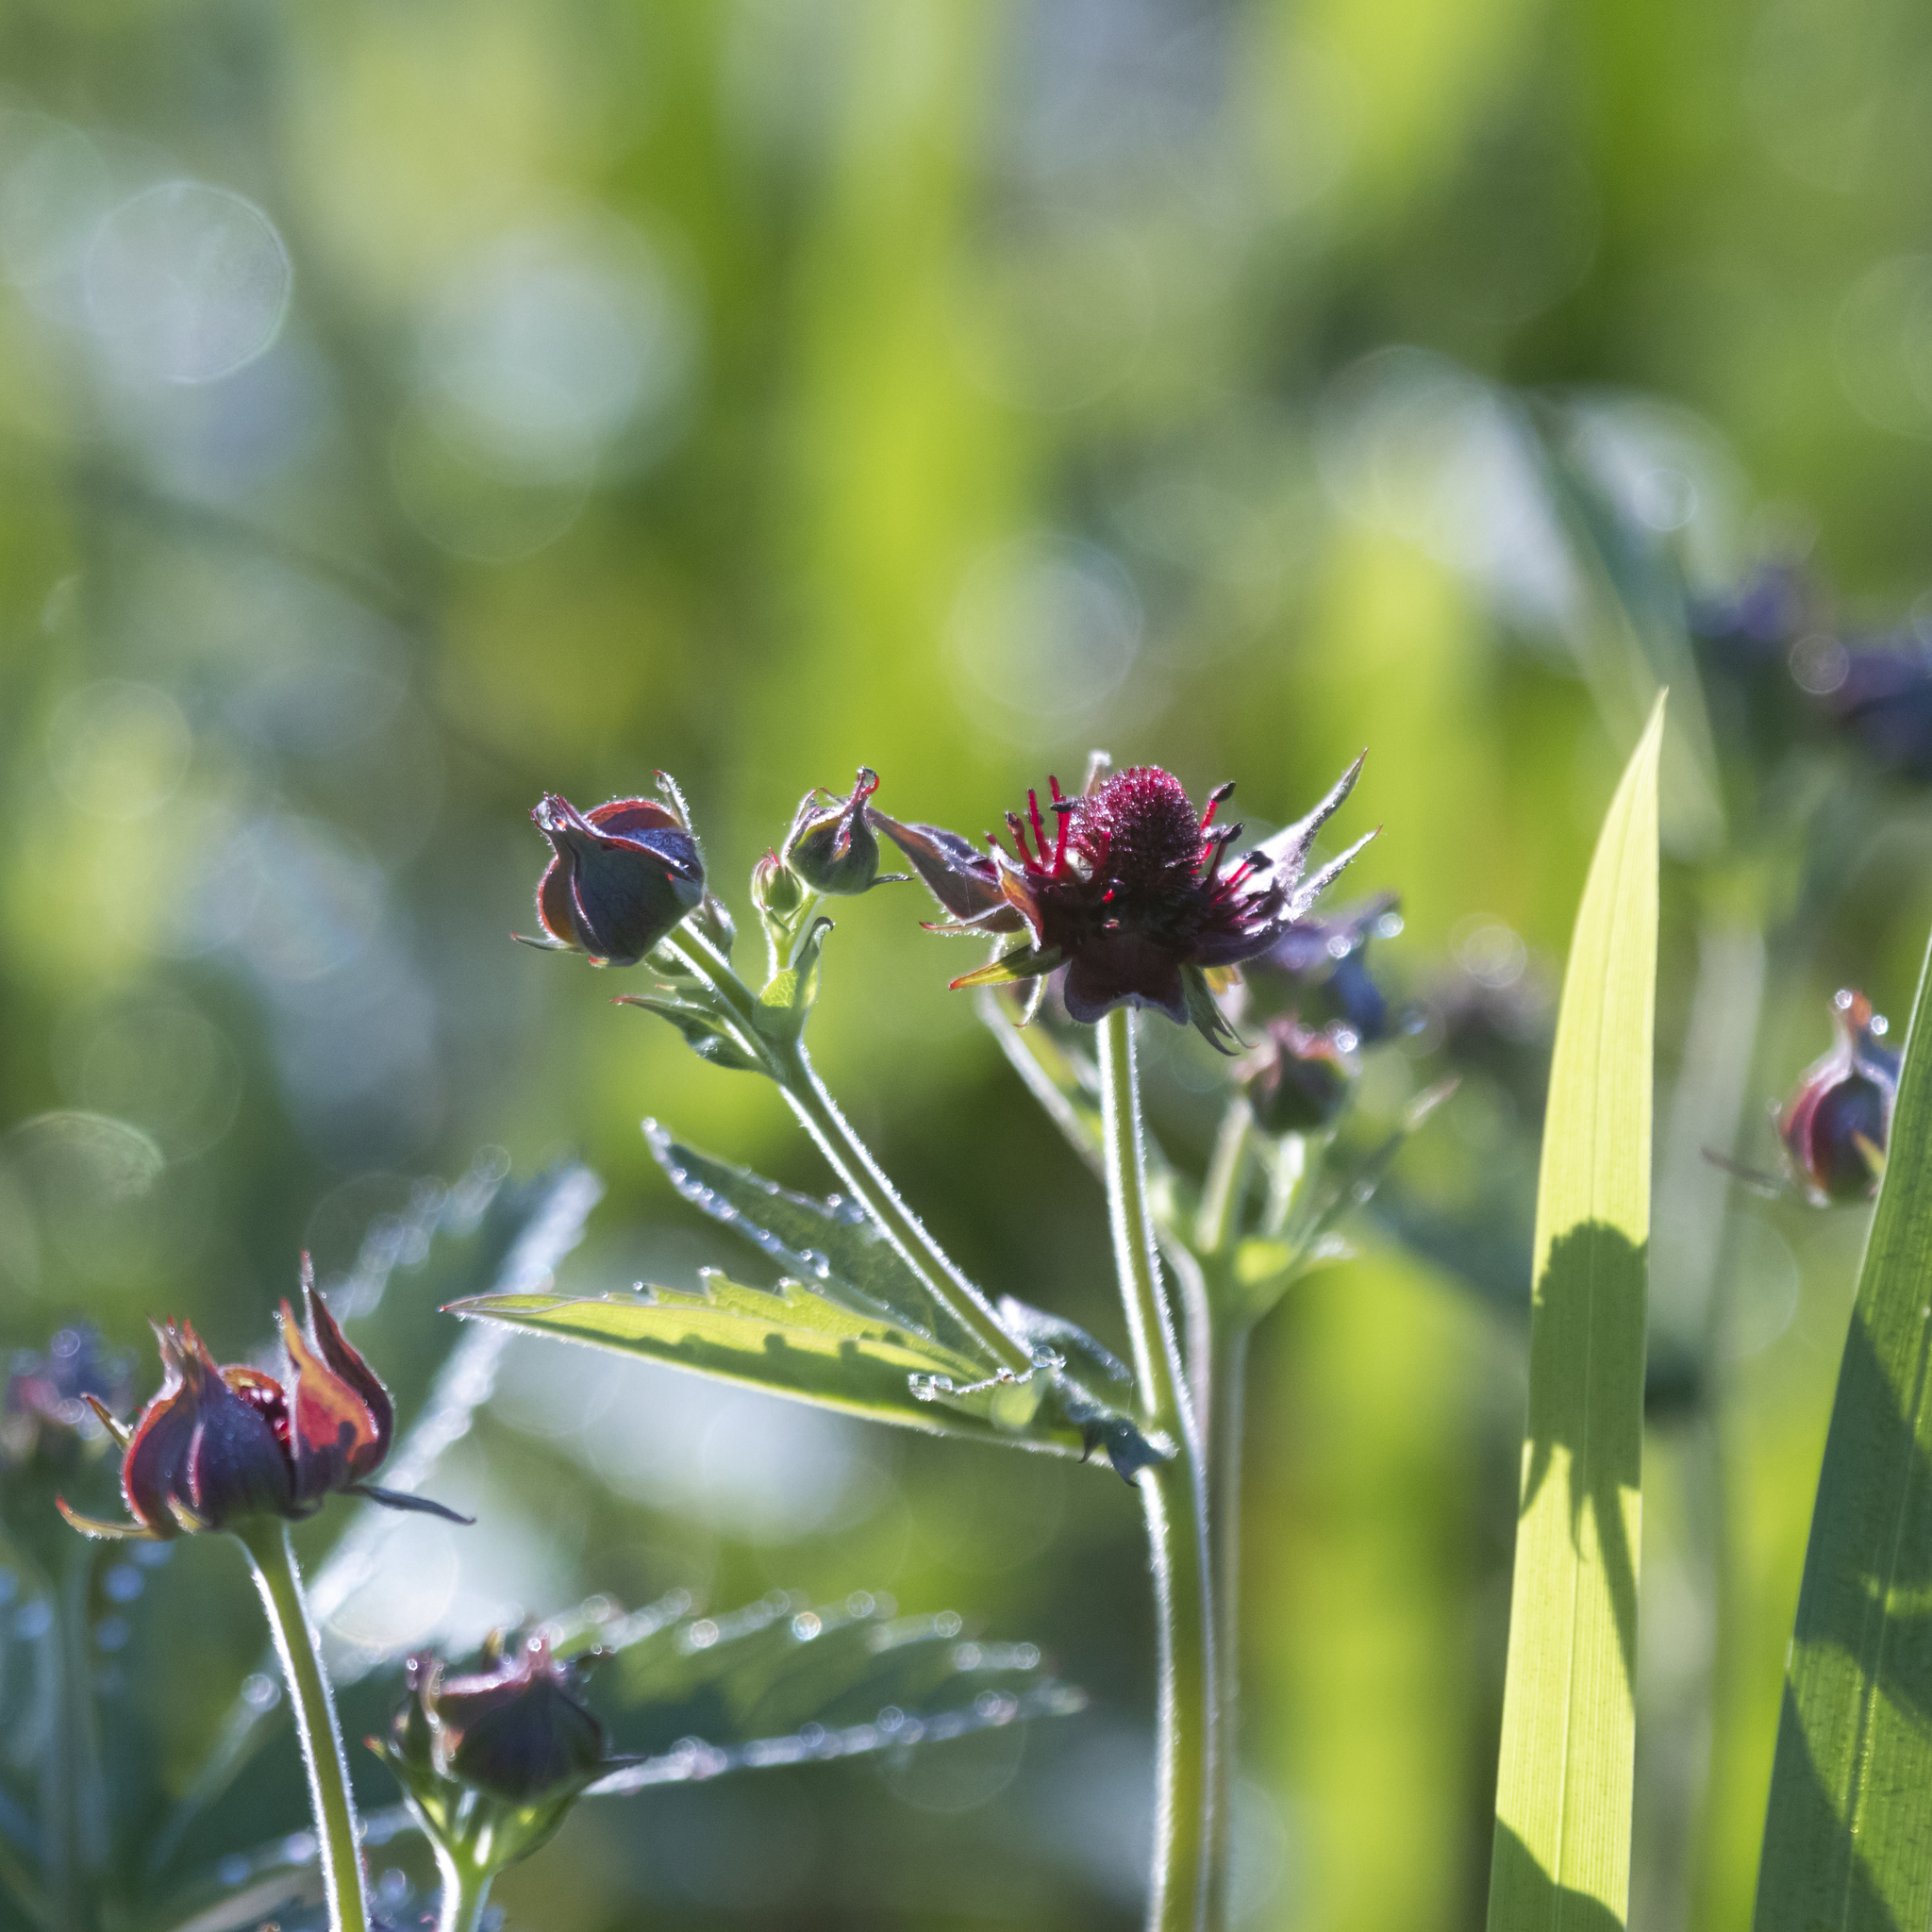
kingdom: Plantae
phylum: Tracheophyta
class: Magnoliopsida
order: Rosales
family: Rosaceae
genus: Comarum
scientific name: Comarum palustre
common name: Marsh cinquefoil
